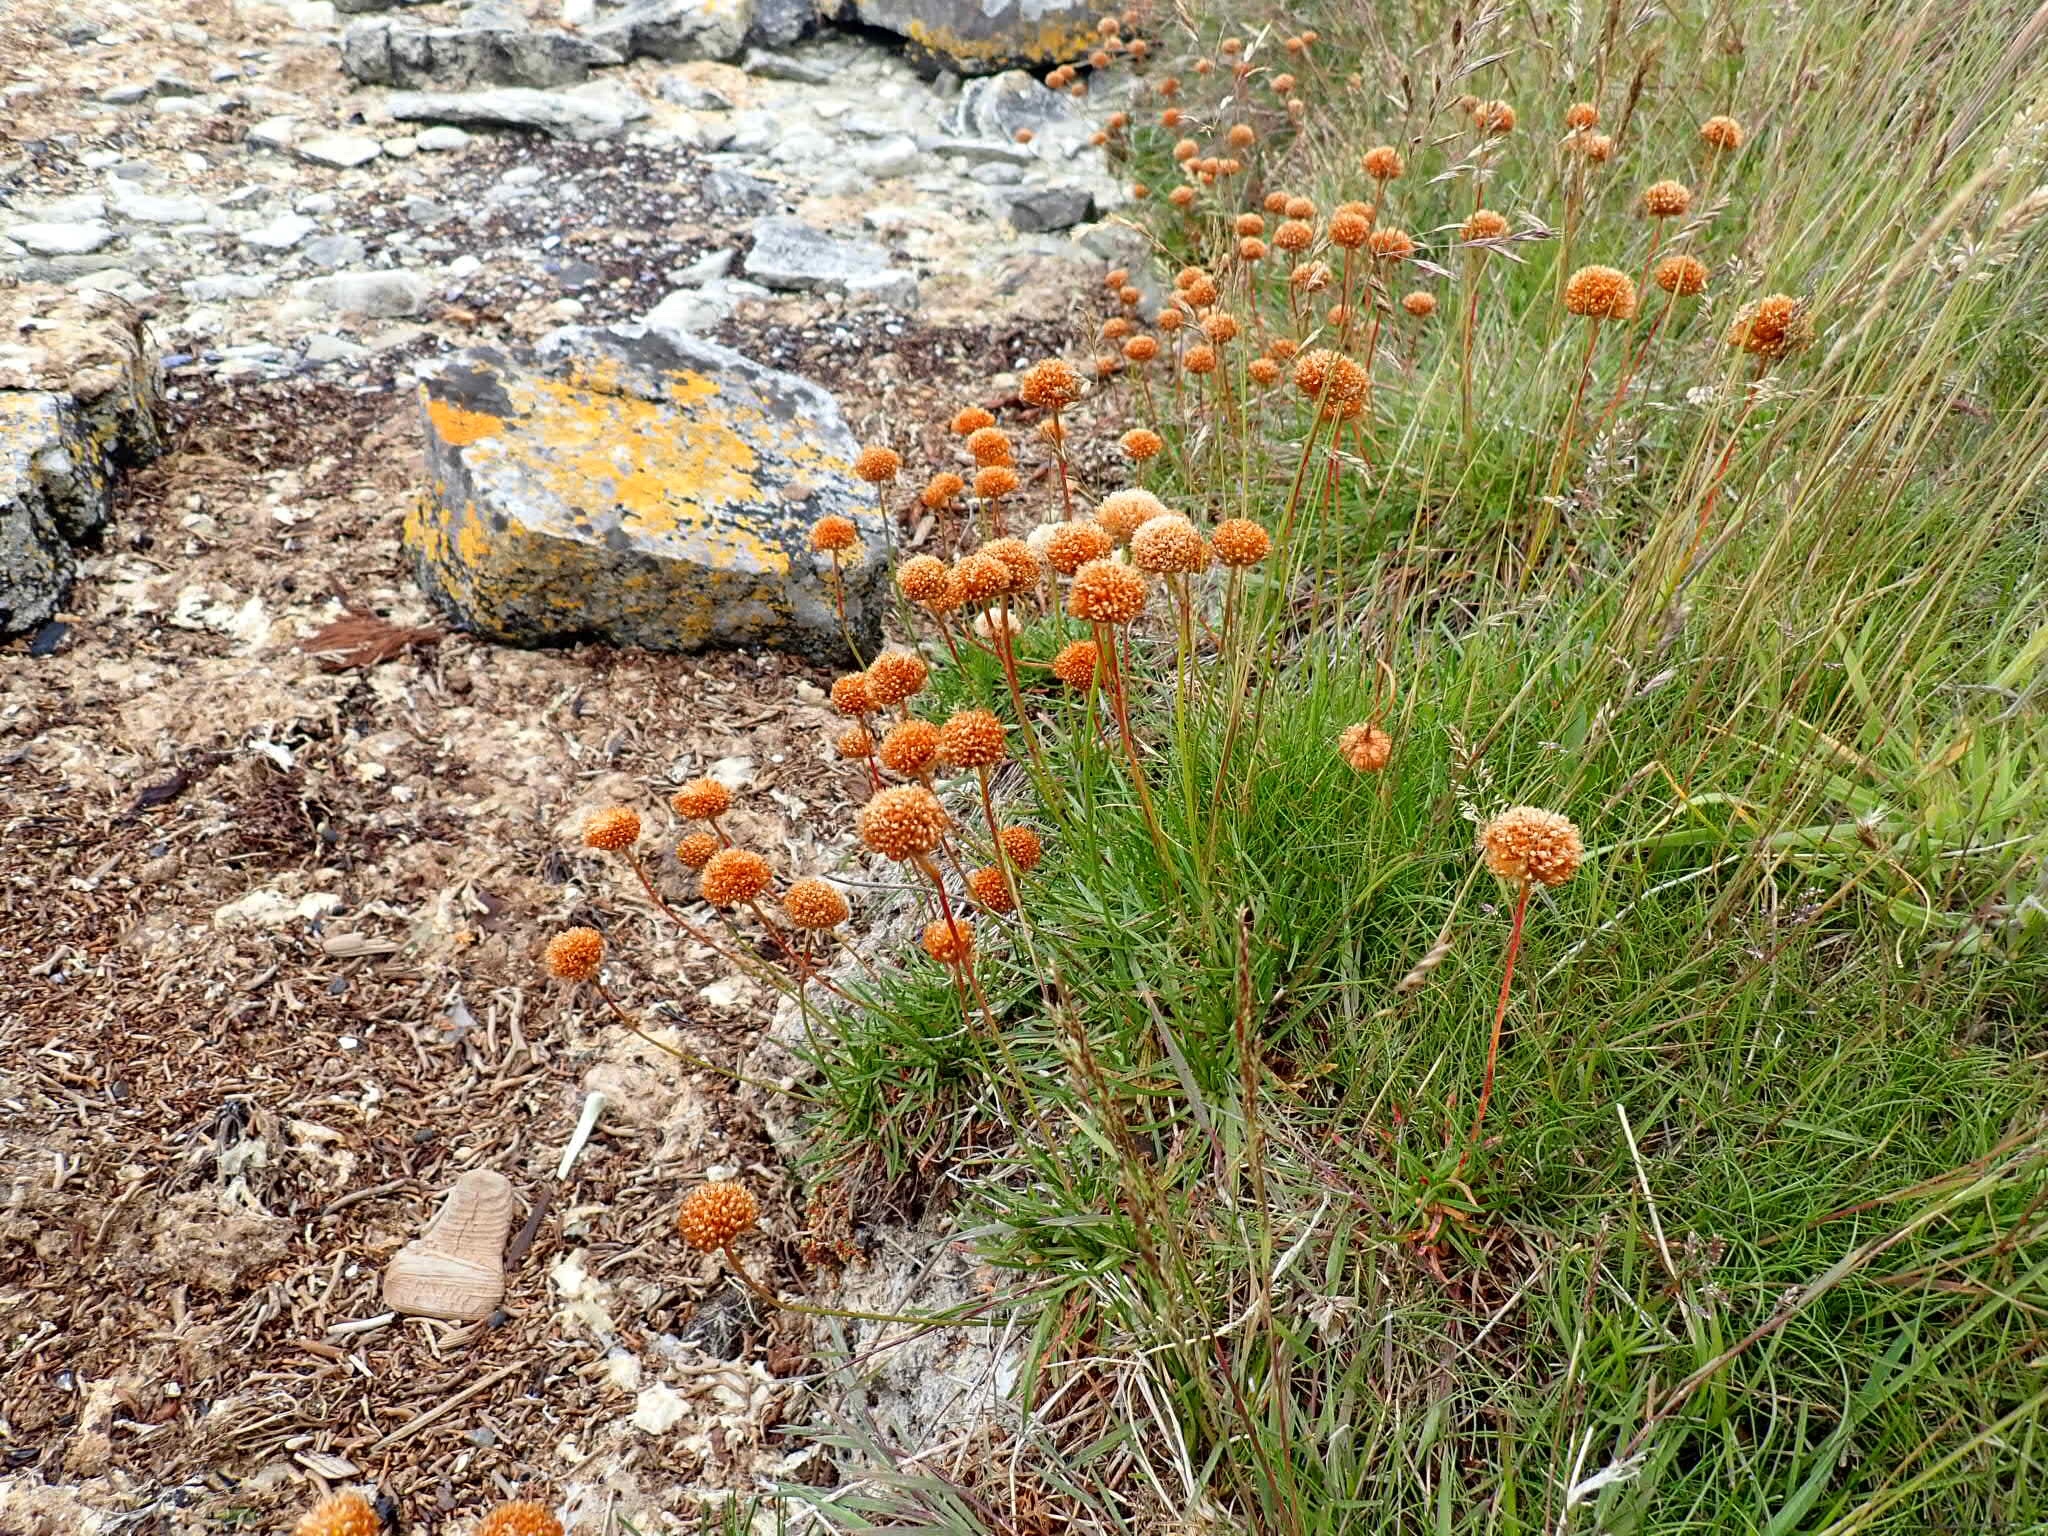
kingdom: Plantae
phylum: Tracheophyta
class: Magnoliopsida
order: Caryophyllales
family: Plumbaginaceae
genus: Armeria
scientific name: Armeria curvifolia
